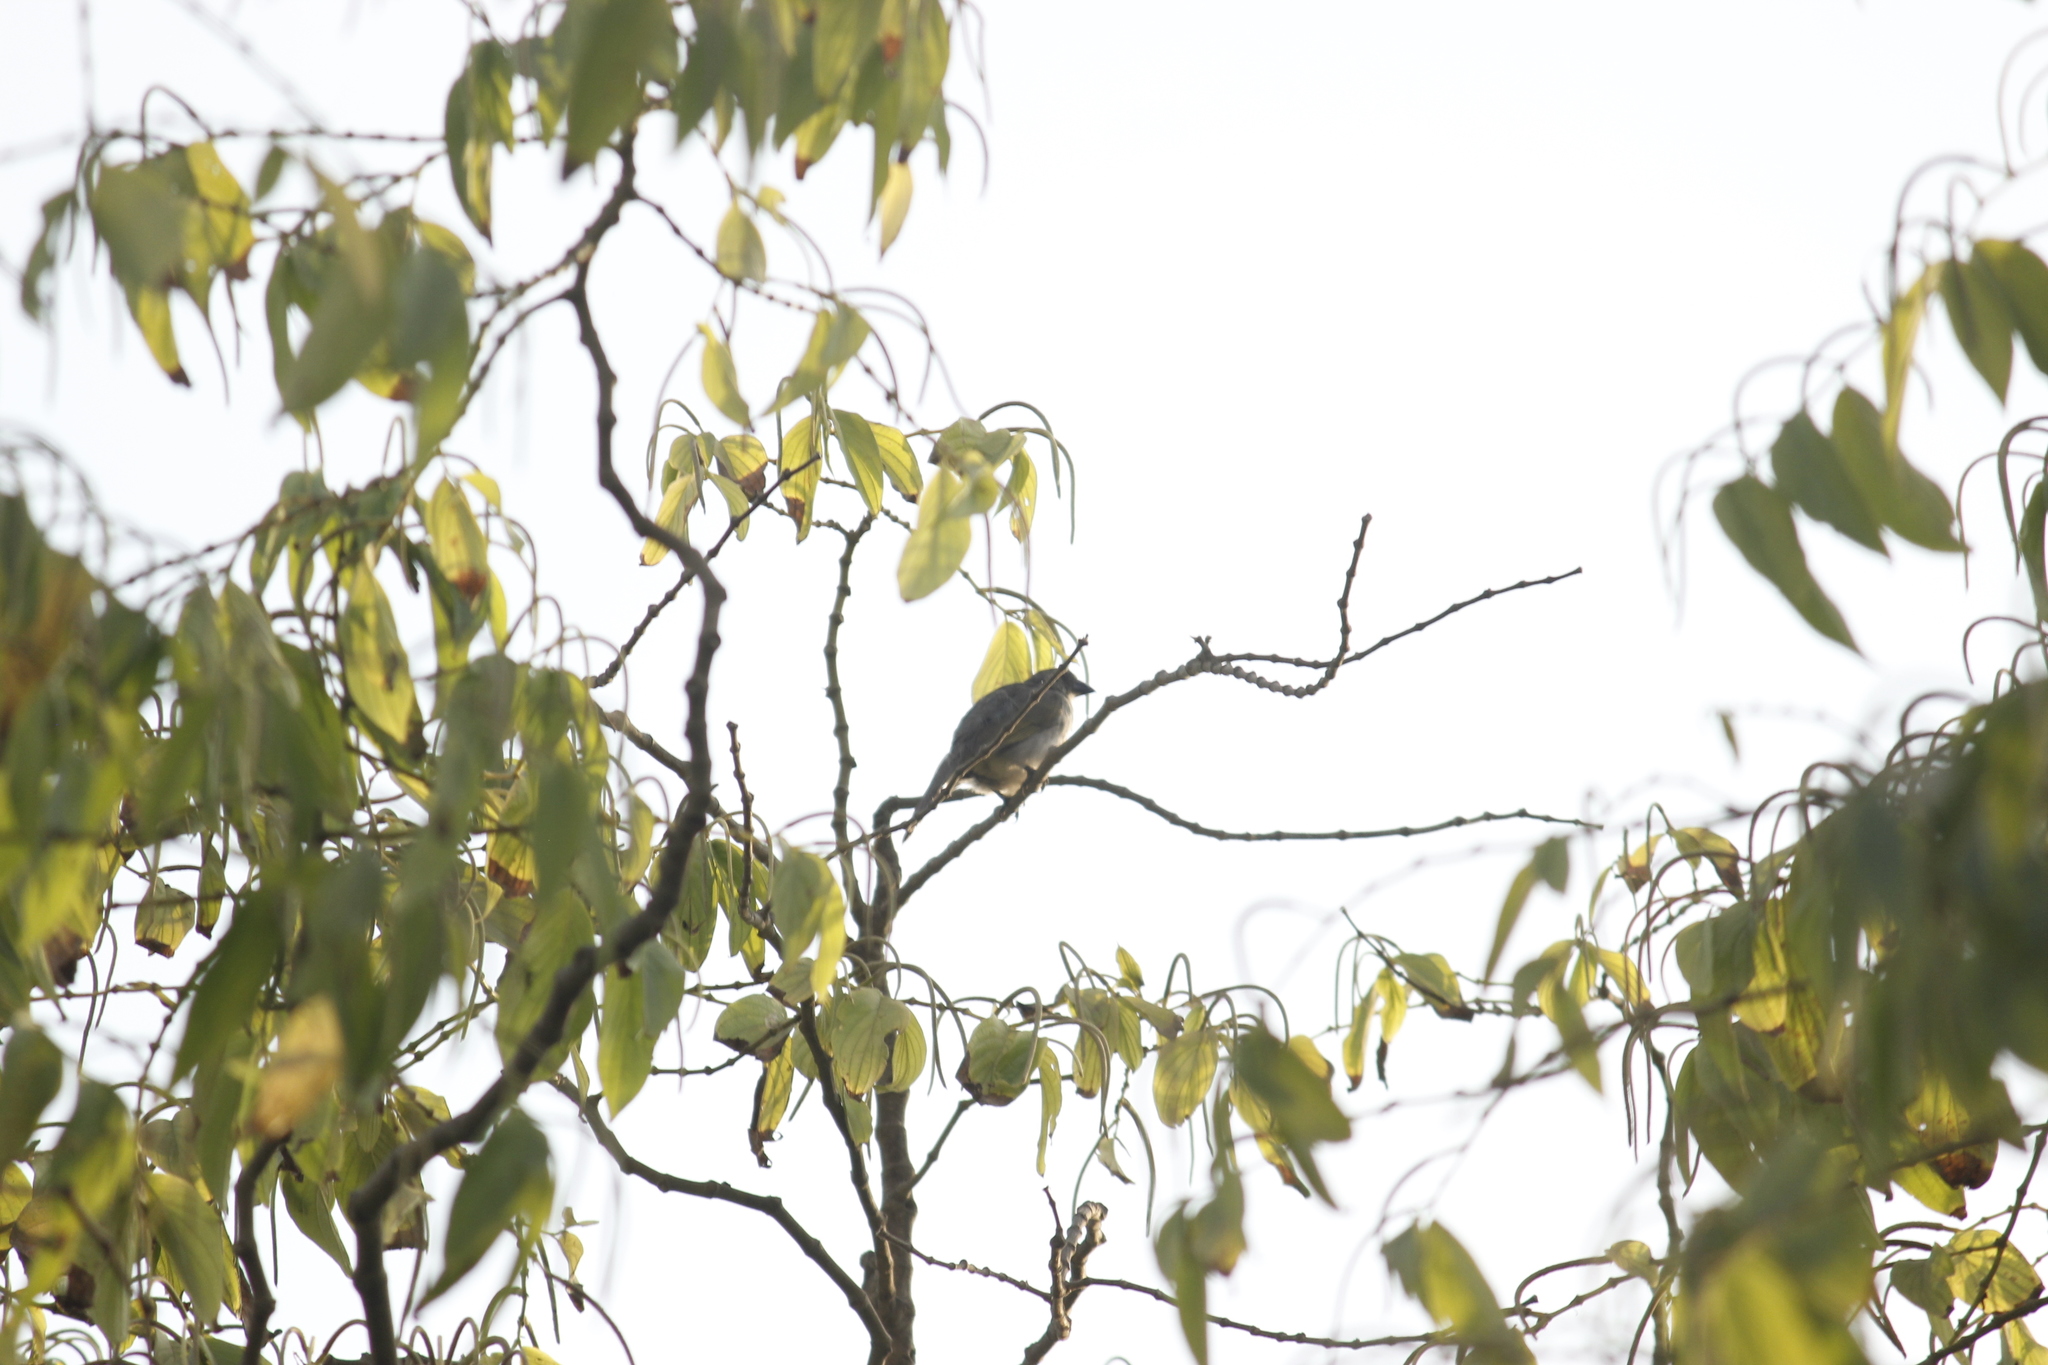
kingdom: Animalia
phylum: Chordata
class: Aves
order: Passeriformes
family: Thraupidae
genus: Saltator
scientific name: Saltator striatipectus
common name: Streaked saltator
